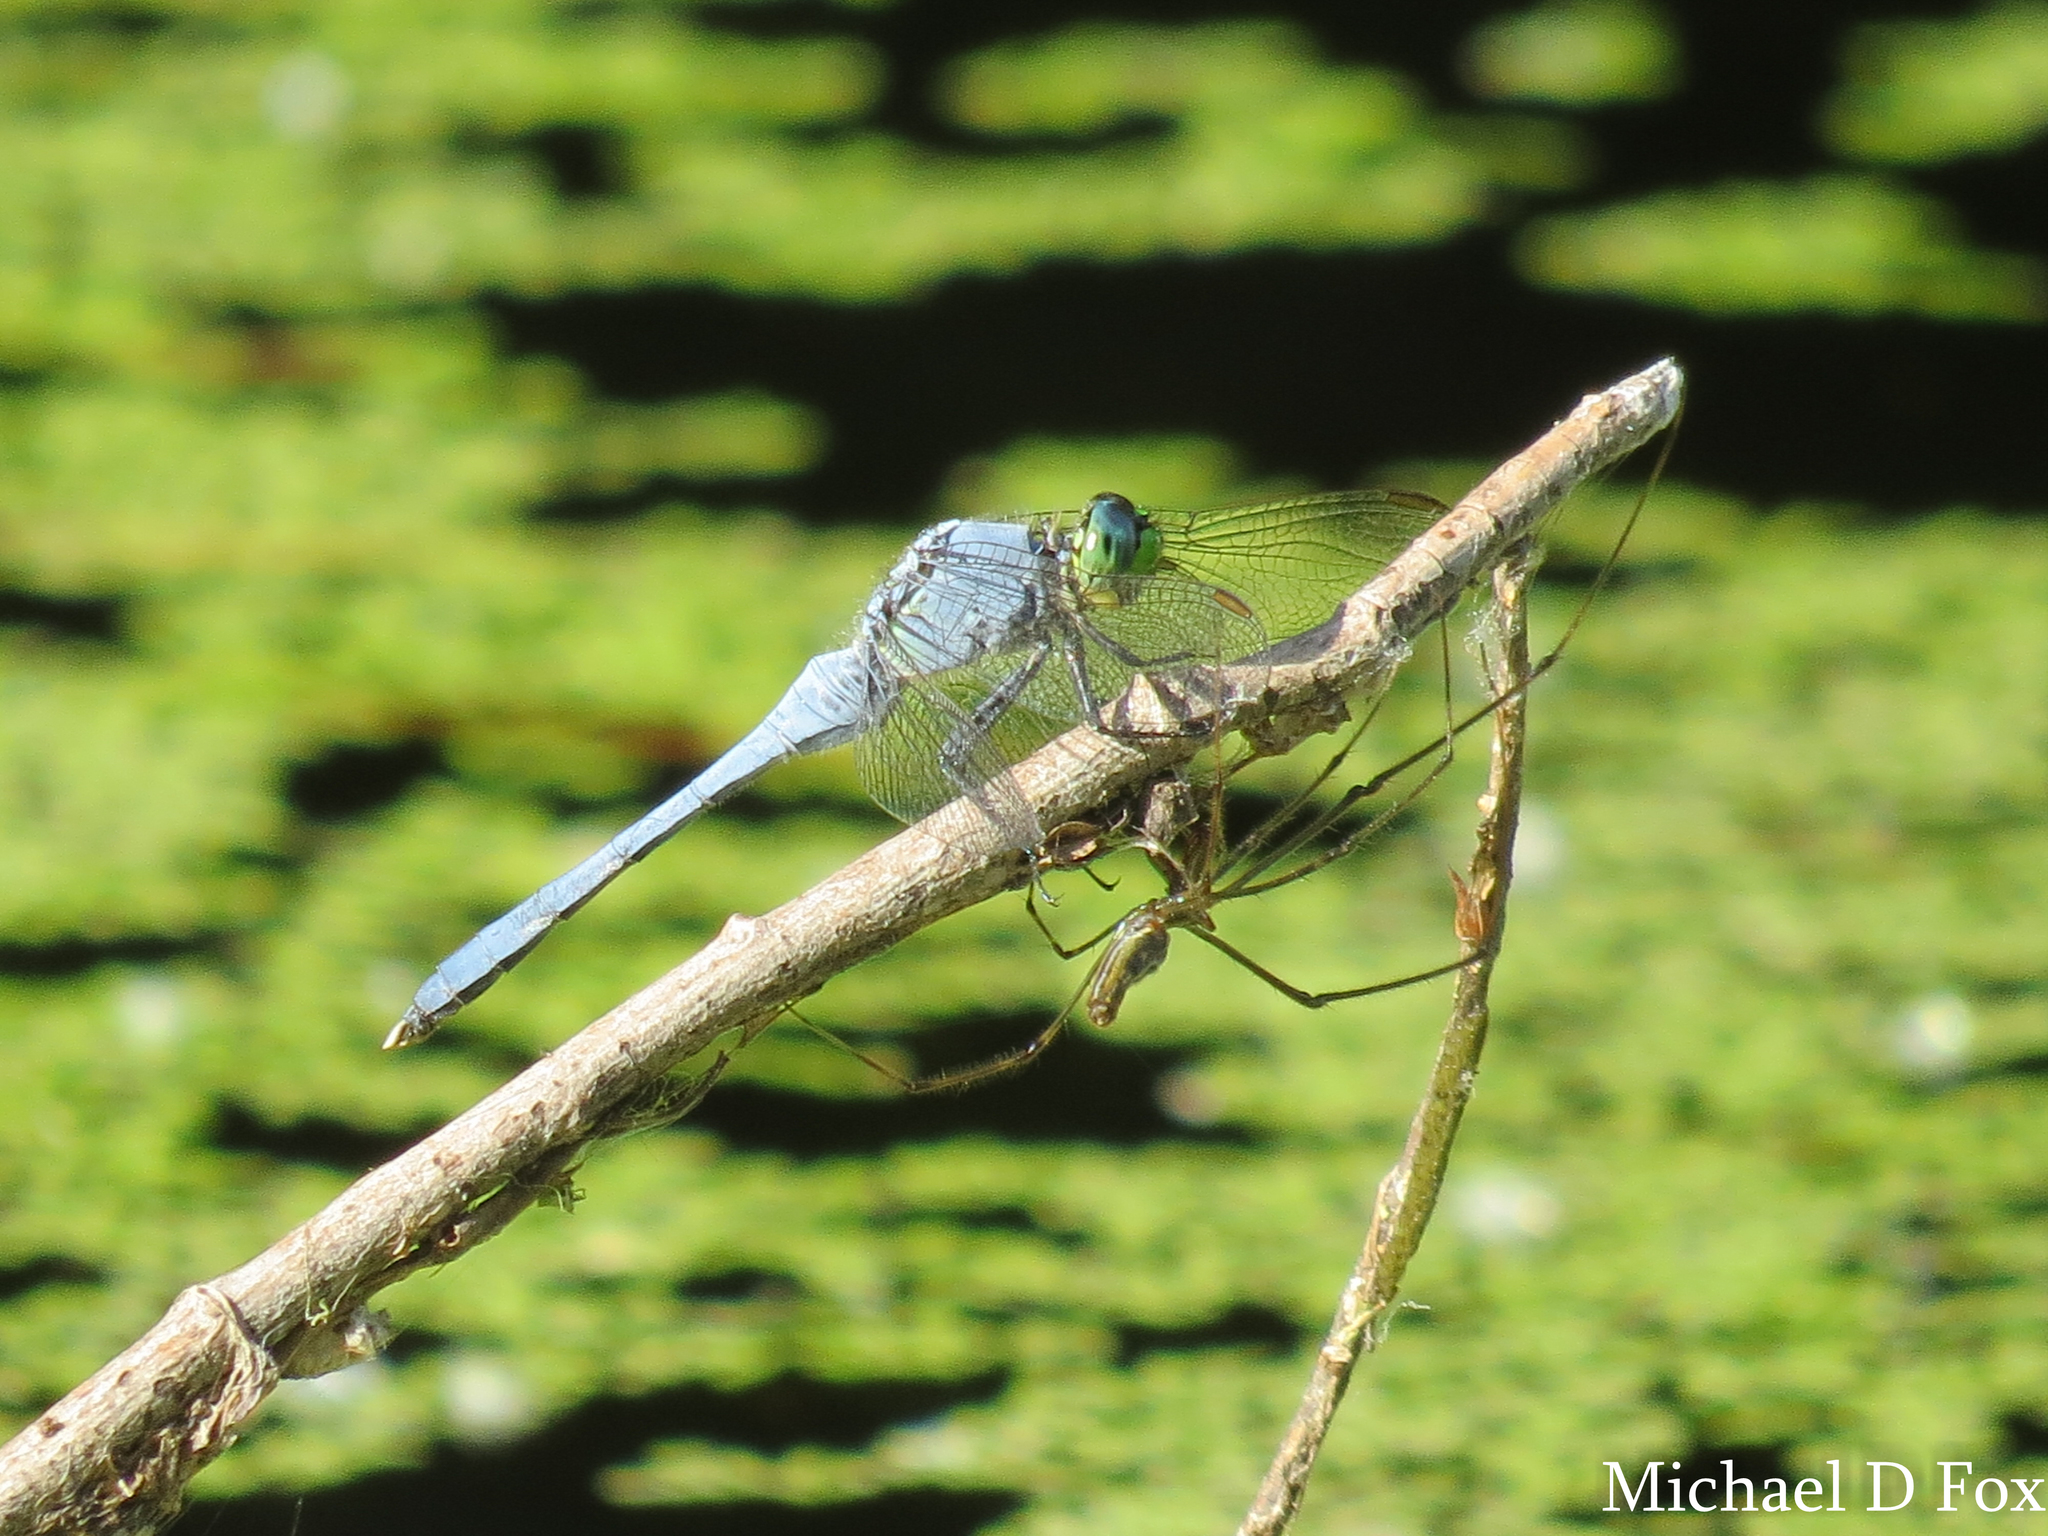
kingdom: Animalia
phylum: Arthropoda
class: Insecta
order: Odonata
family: Libellulidae
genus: Erythemis
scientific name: Erythemis simplicicollis
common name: Eastern pondhawk
